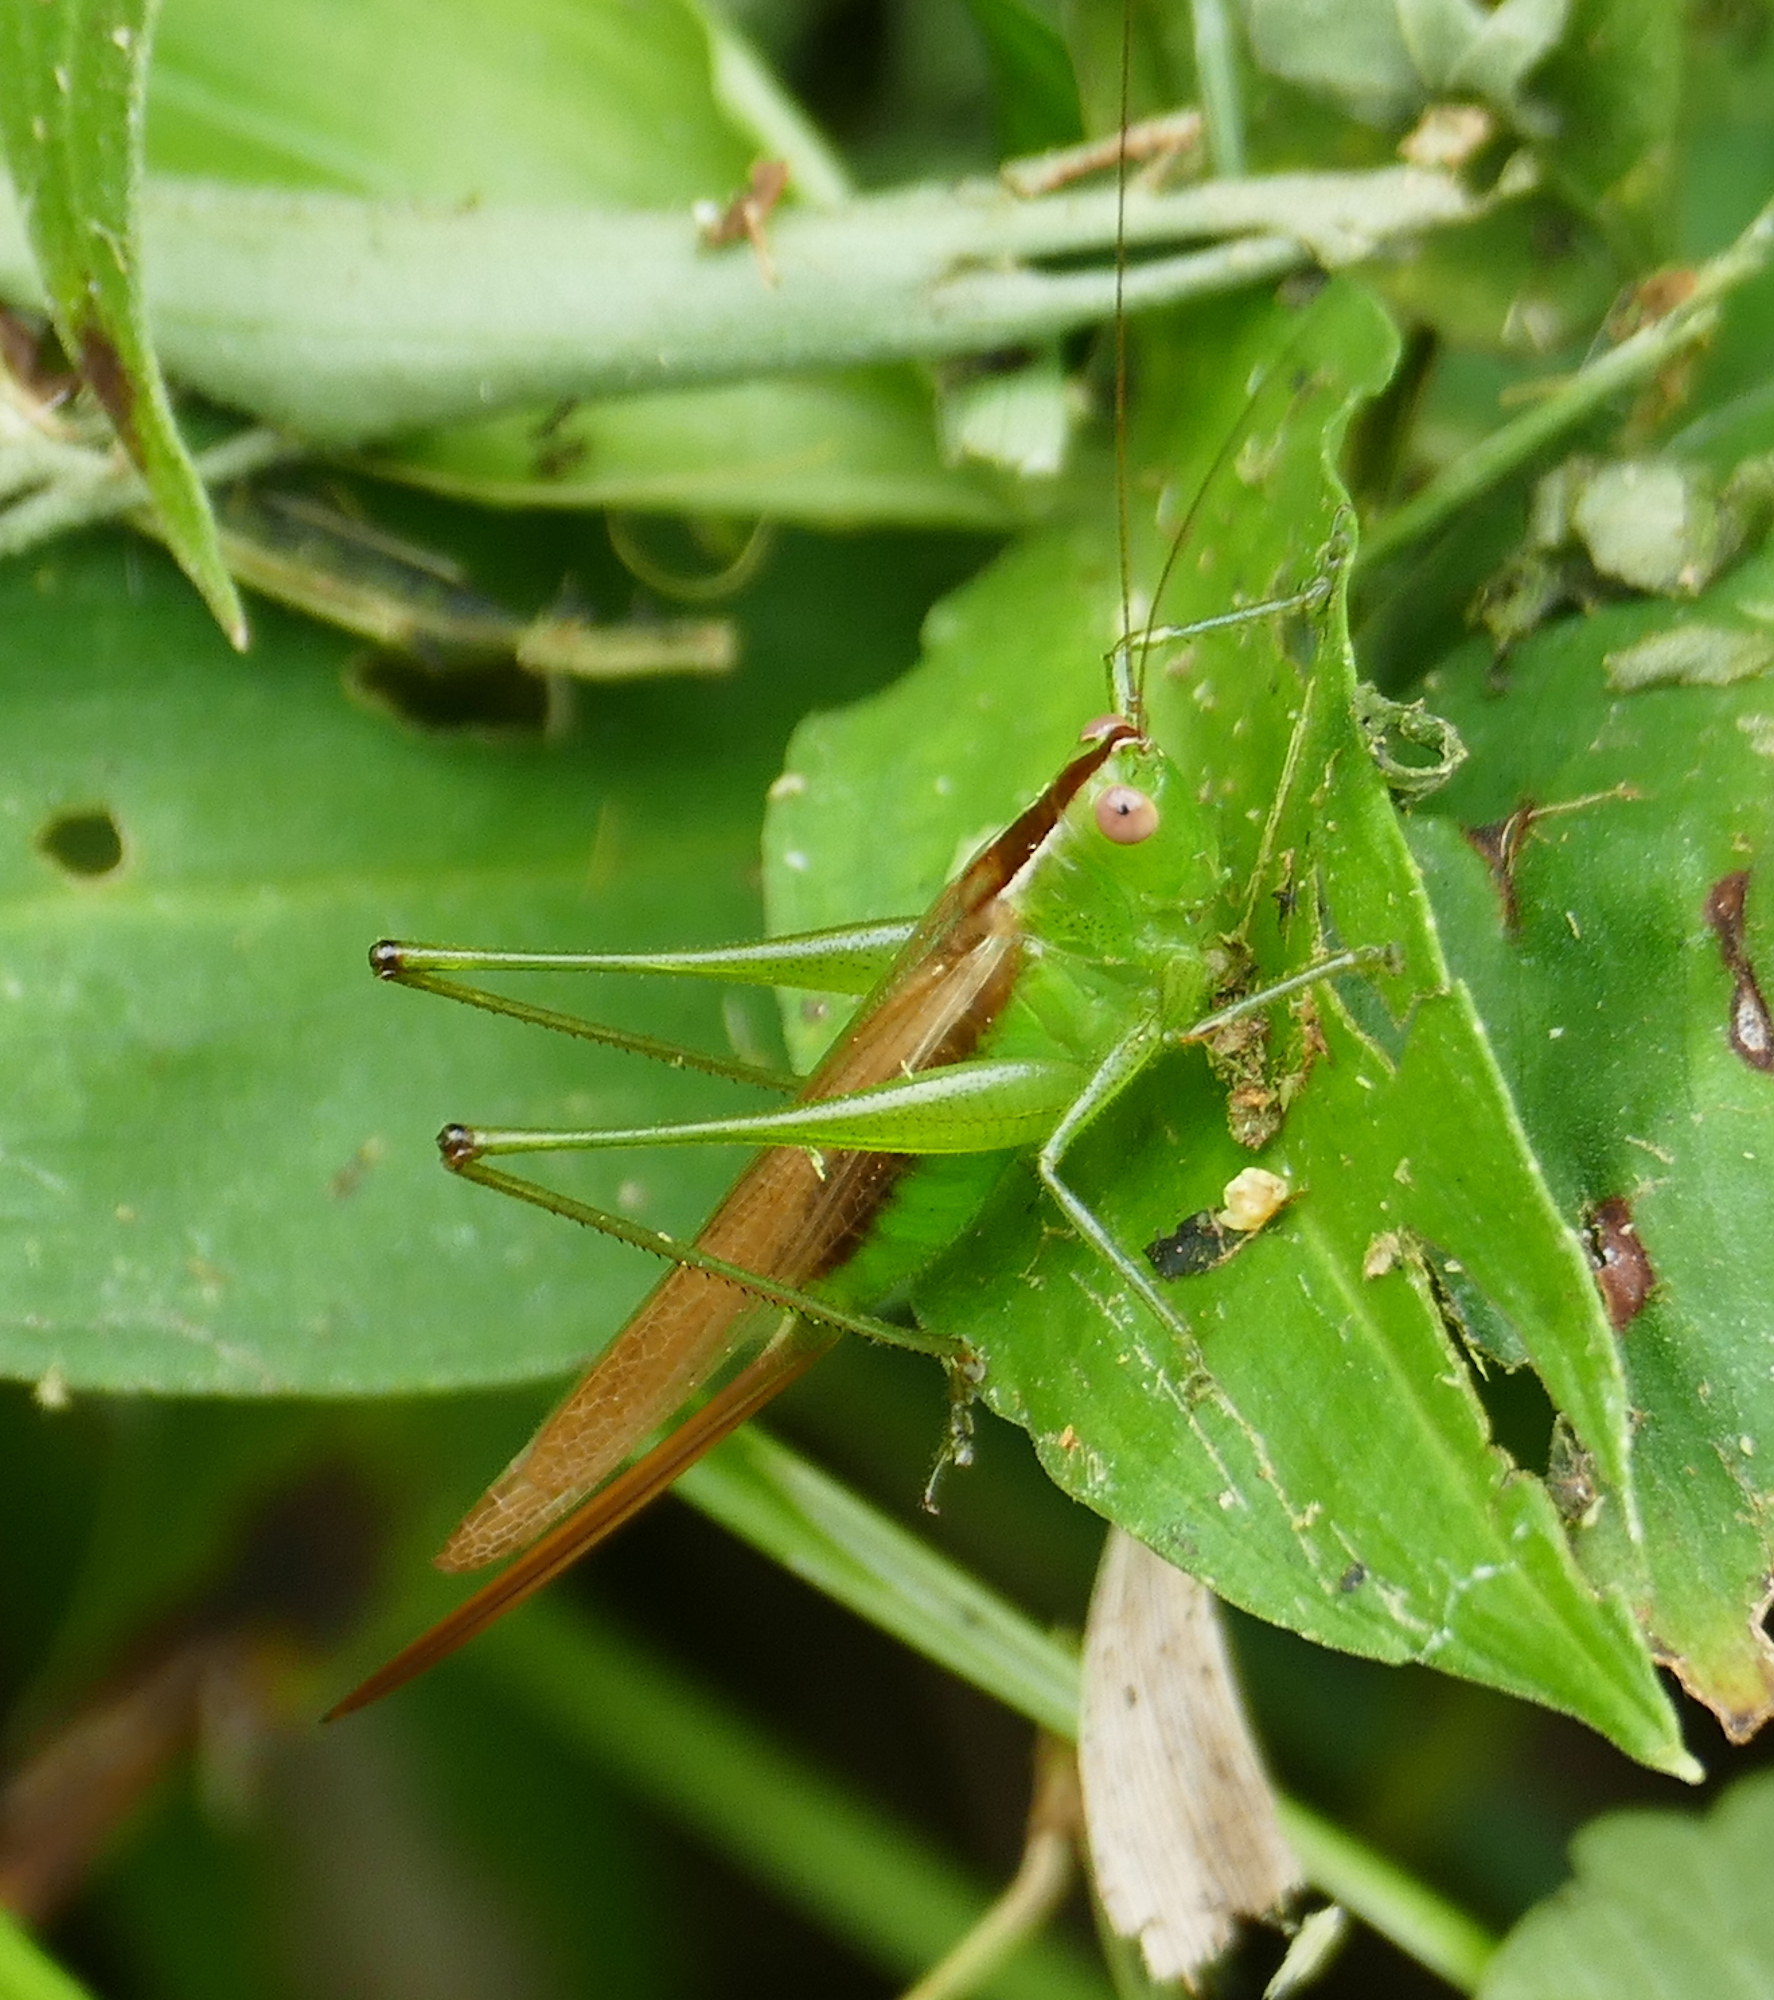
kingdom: Animalia
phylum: Arthropoda
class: Insecta
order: Orthoptera
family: Tettigoniidae
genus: Conocephalus
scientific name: Conocephalus brevipennis
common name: Short-winged meadow katydid
